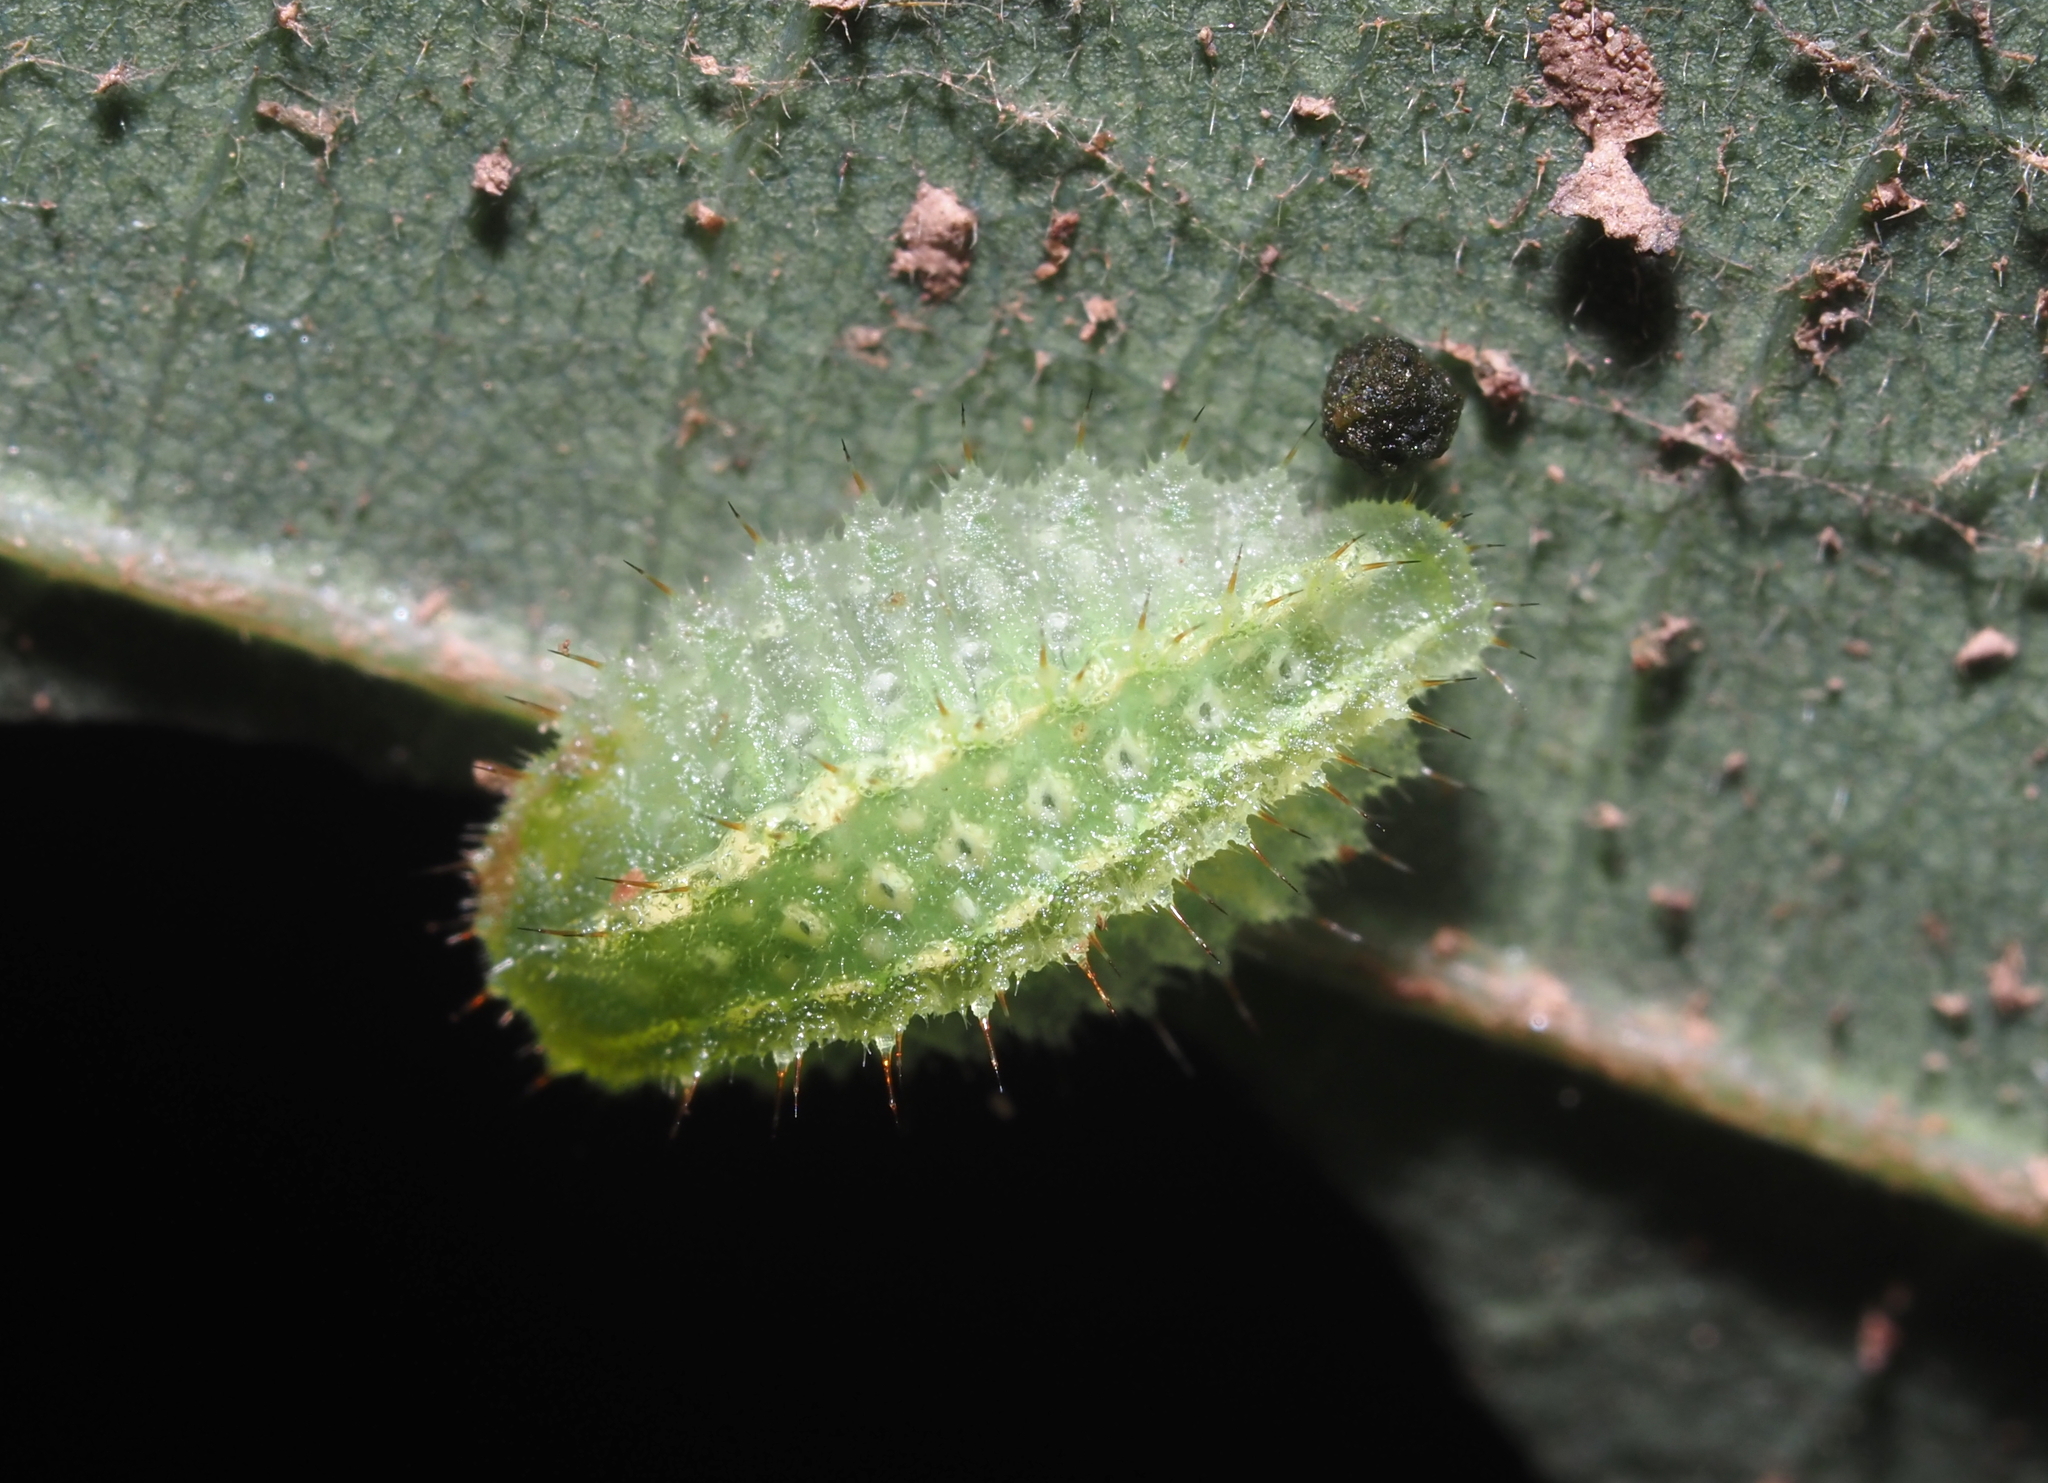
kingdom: Animalia
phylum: Arthropoda
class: Insecta
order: Lepidoptera
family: Limacodidae
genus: Lithacodes
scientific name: Lithacodes fasciola
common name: Yellow-shouldered slug moth
